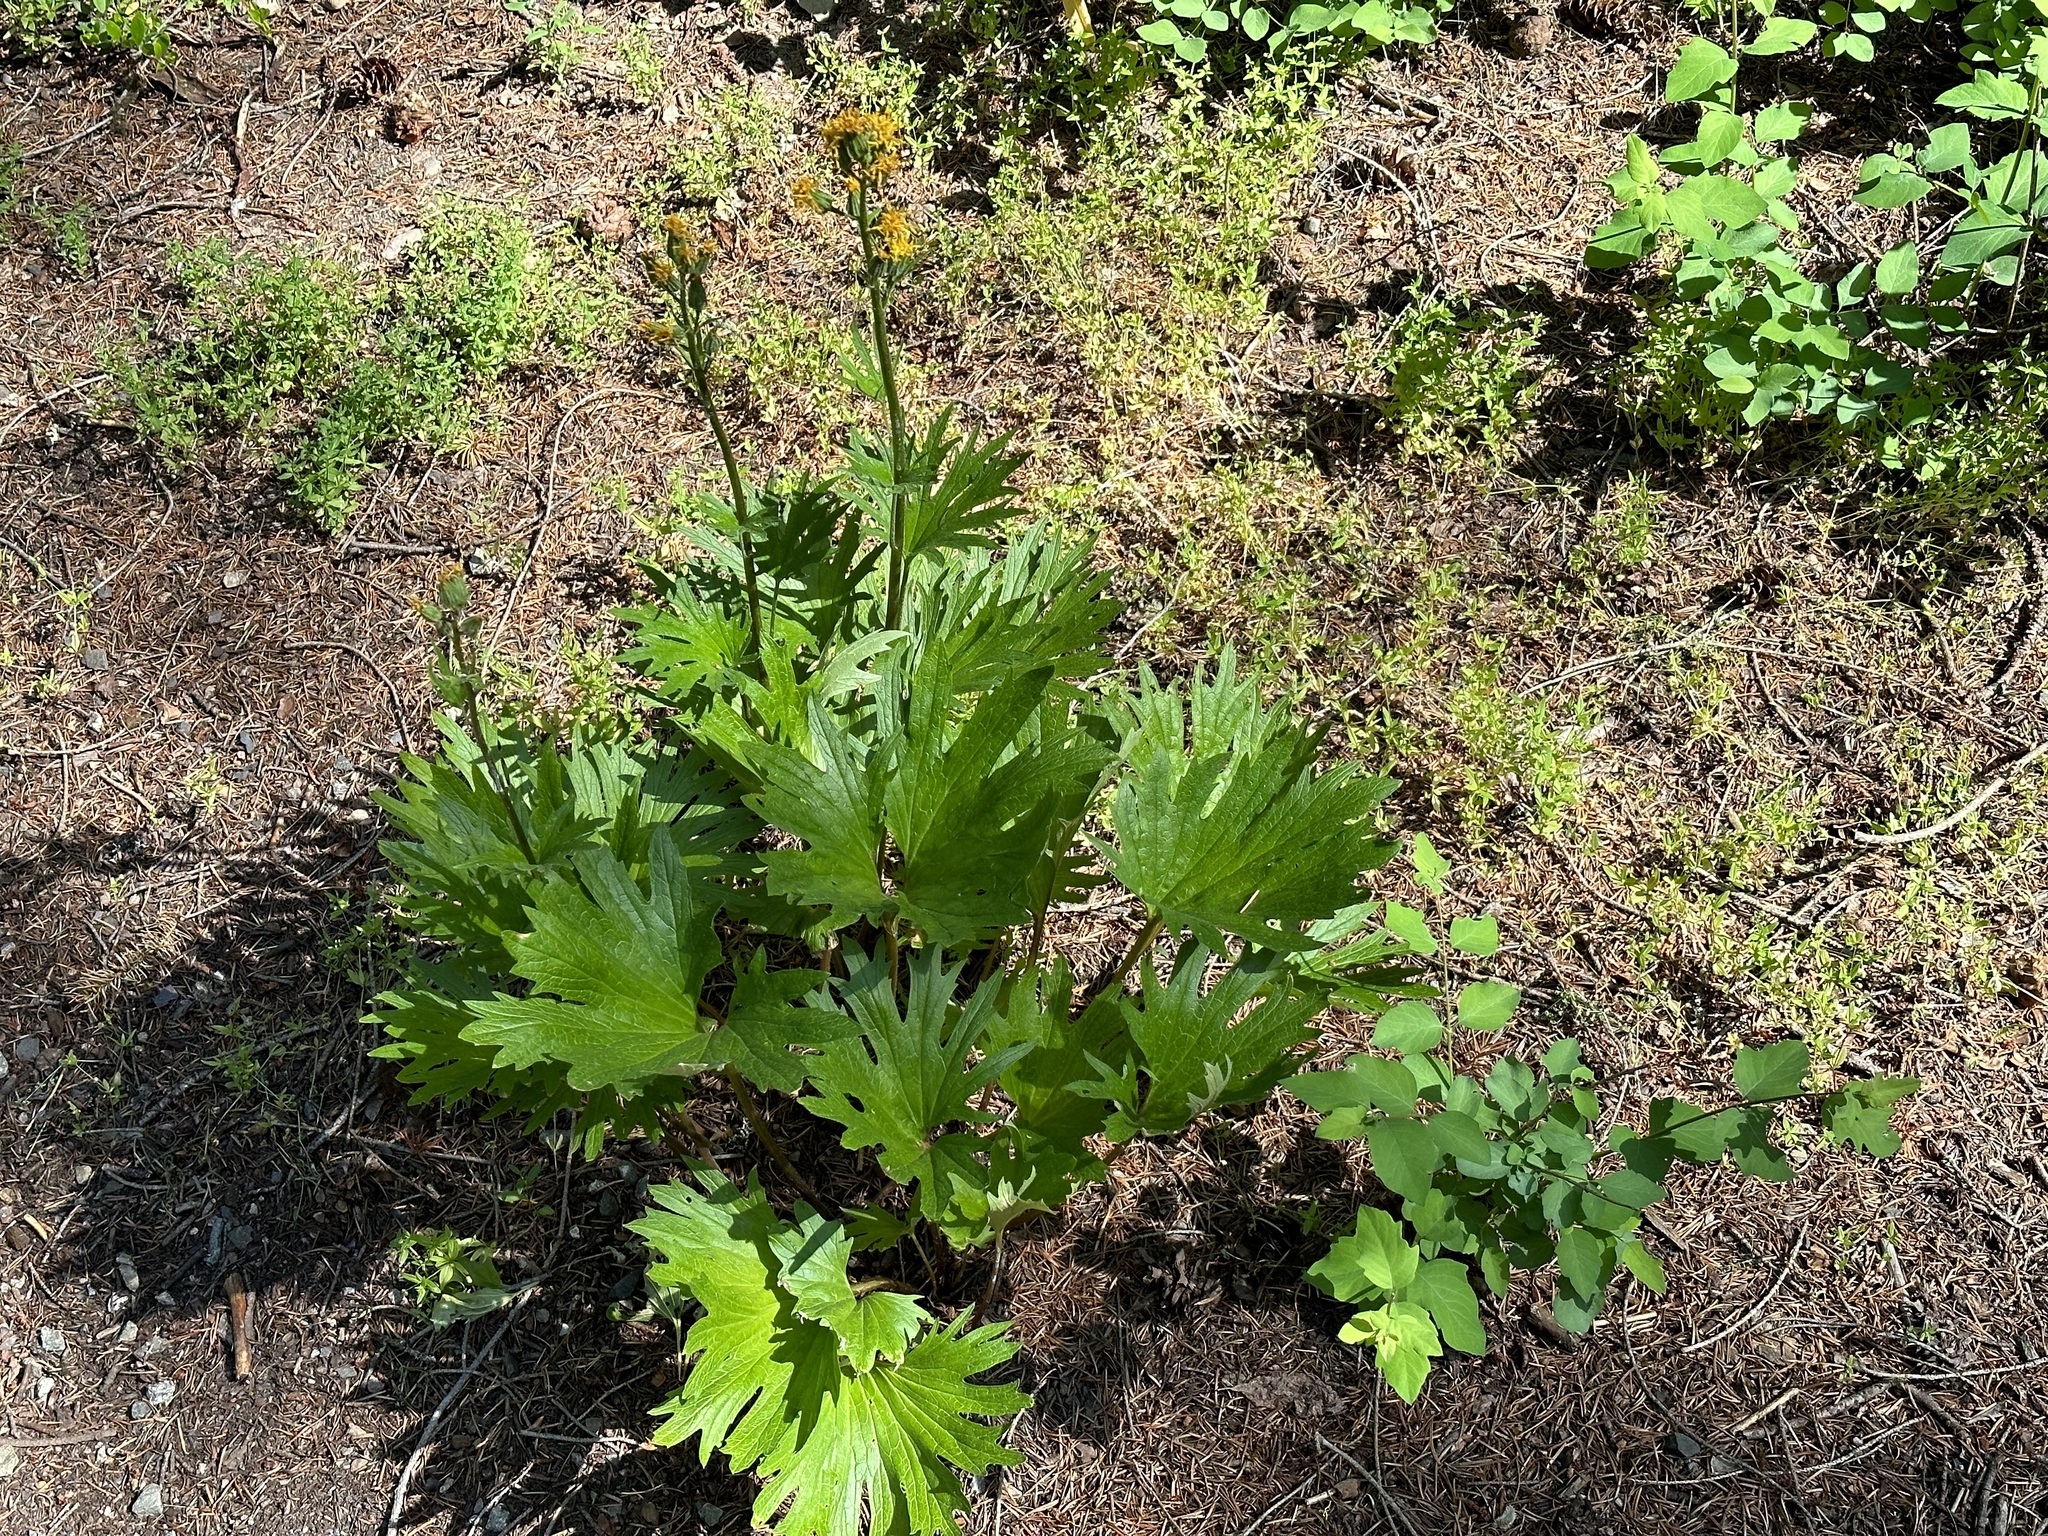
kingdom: Plantae
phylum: Tracheophyta
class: Magnoliopsida
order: Asterales
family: Asteraceae
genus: Cacaliopsis
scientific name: Cacaliopsis nardosmia
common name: Silvercrown
